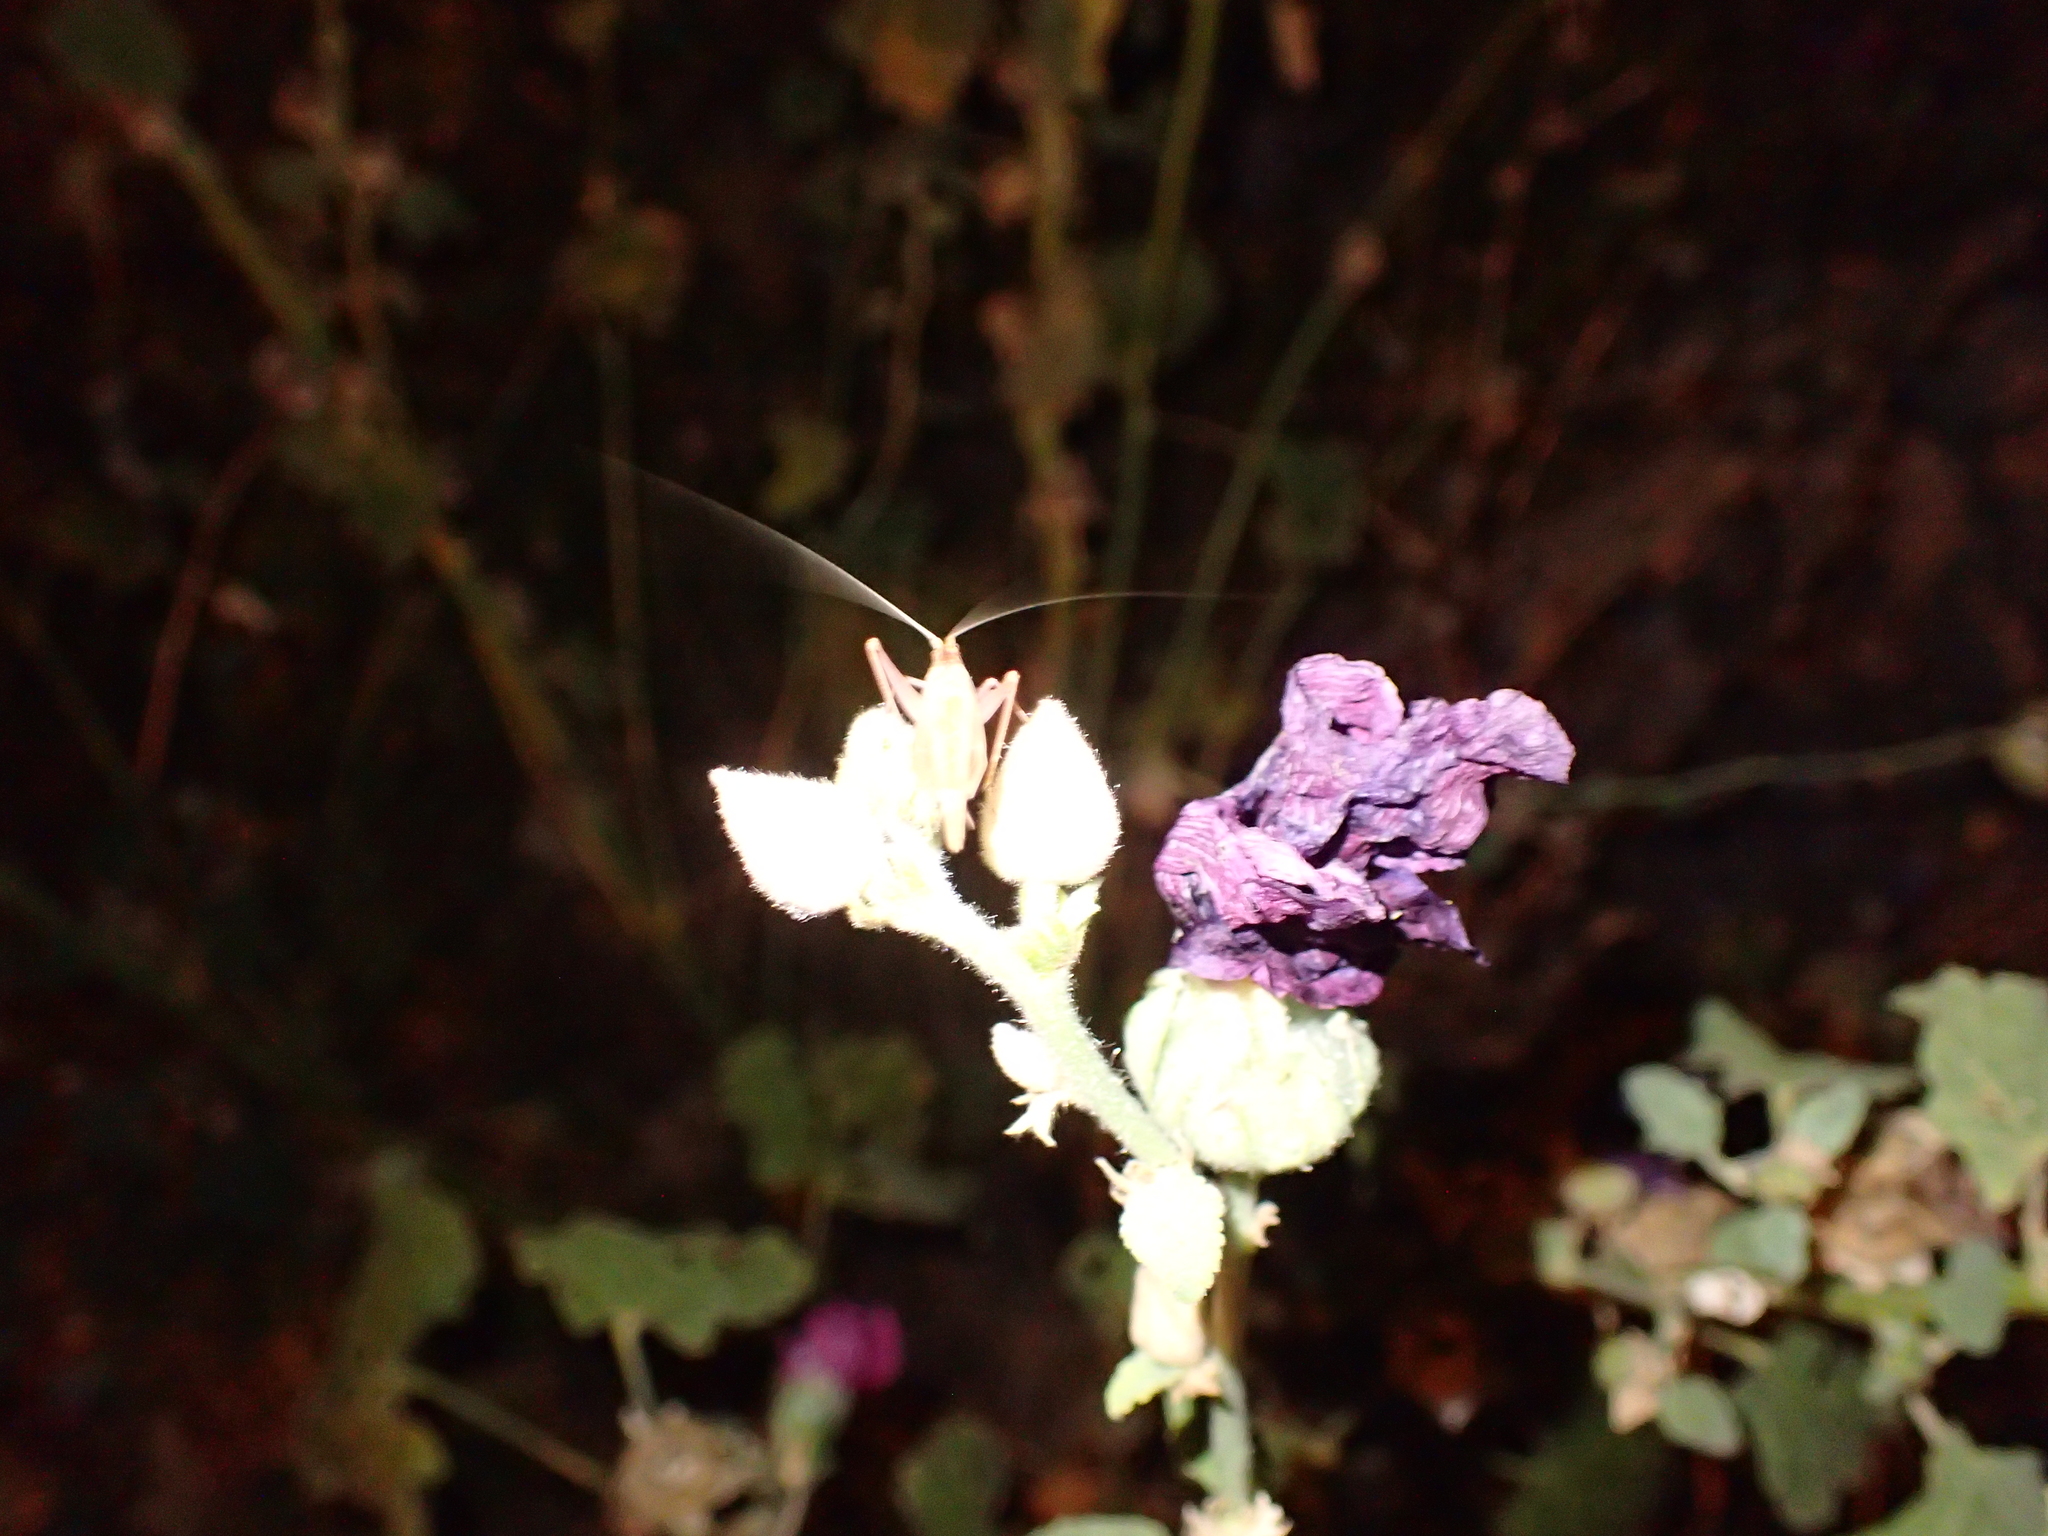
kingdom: Animalia
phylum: Arthropoda
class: Insecta
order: Orthoptera
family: Gryllidae
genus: Oecanthus
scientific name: Oecanthus pellucens
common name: Tree-cricket
